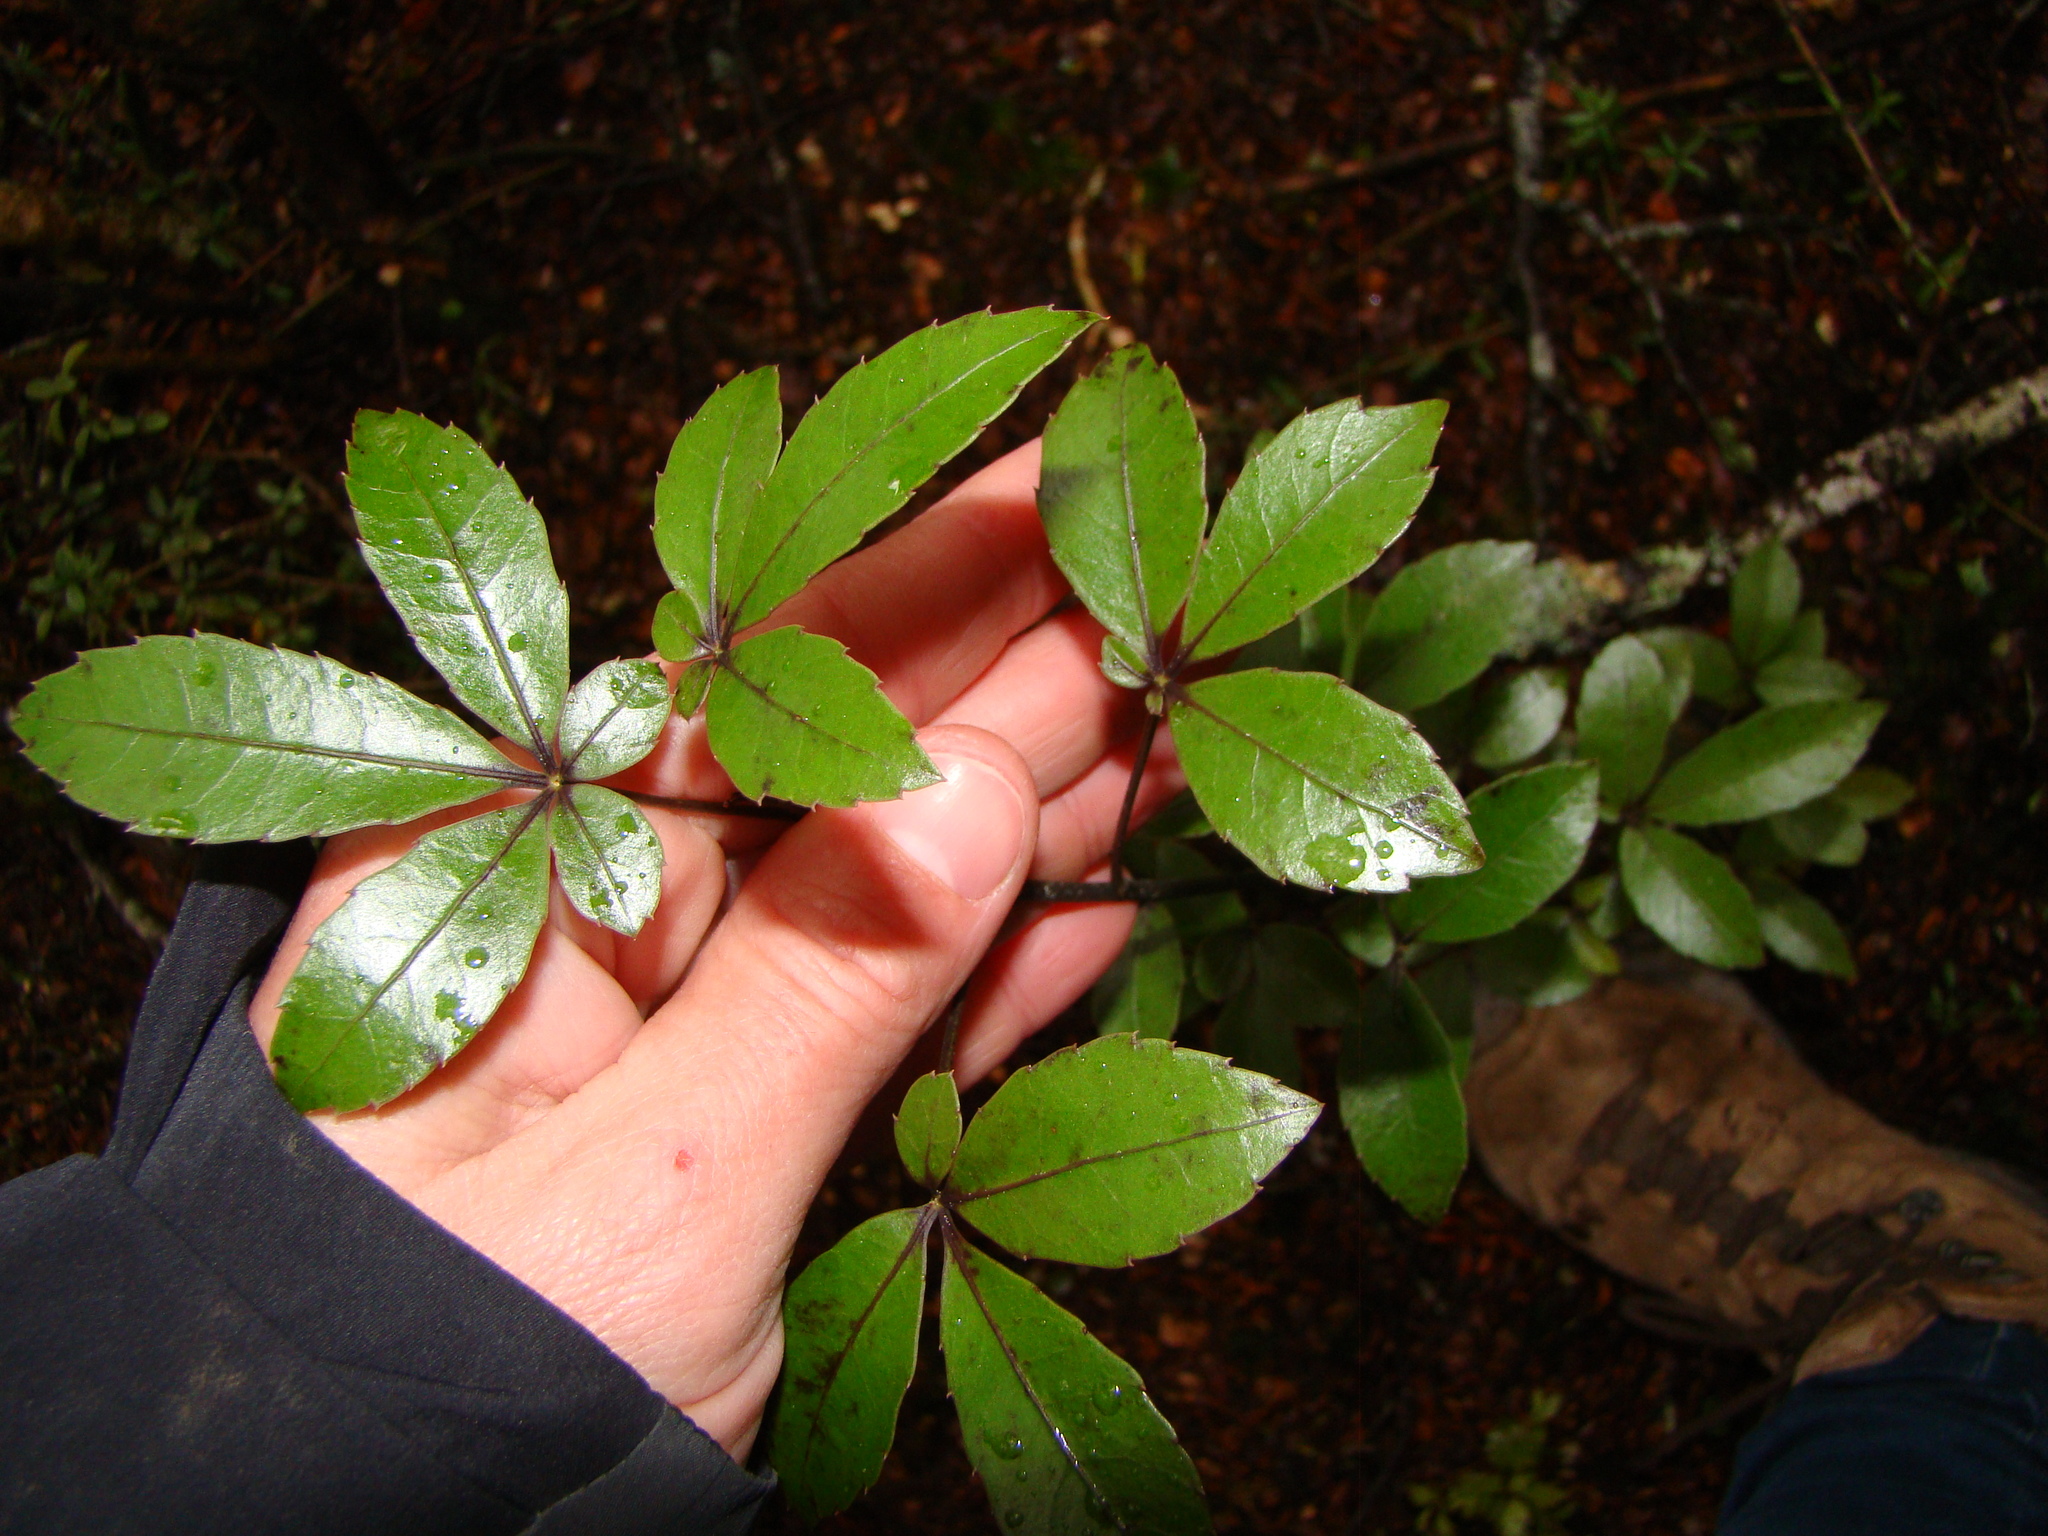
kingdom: Plantae
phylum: Tracheophyta
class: Magnoliopsida
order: Apiales
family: Araliaceae
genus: Neopanax
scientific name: Neopanax colensoi
